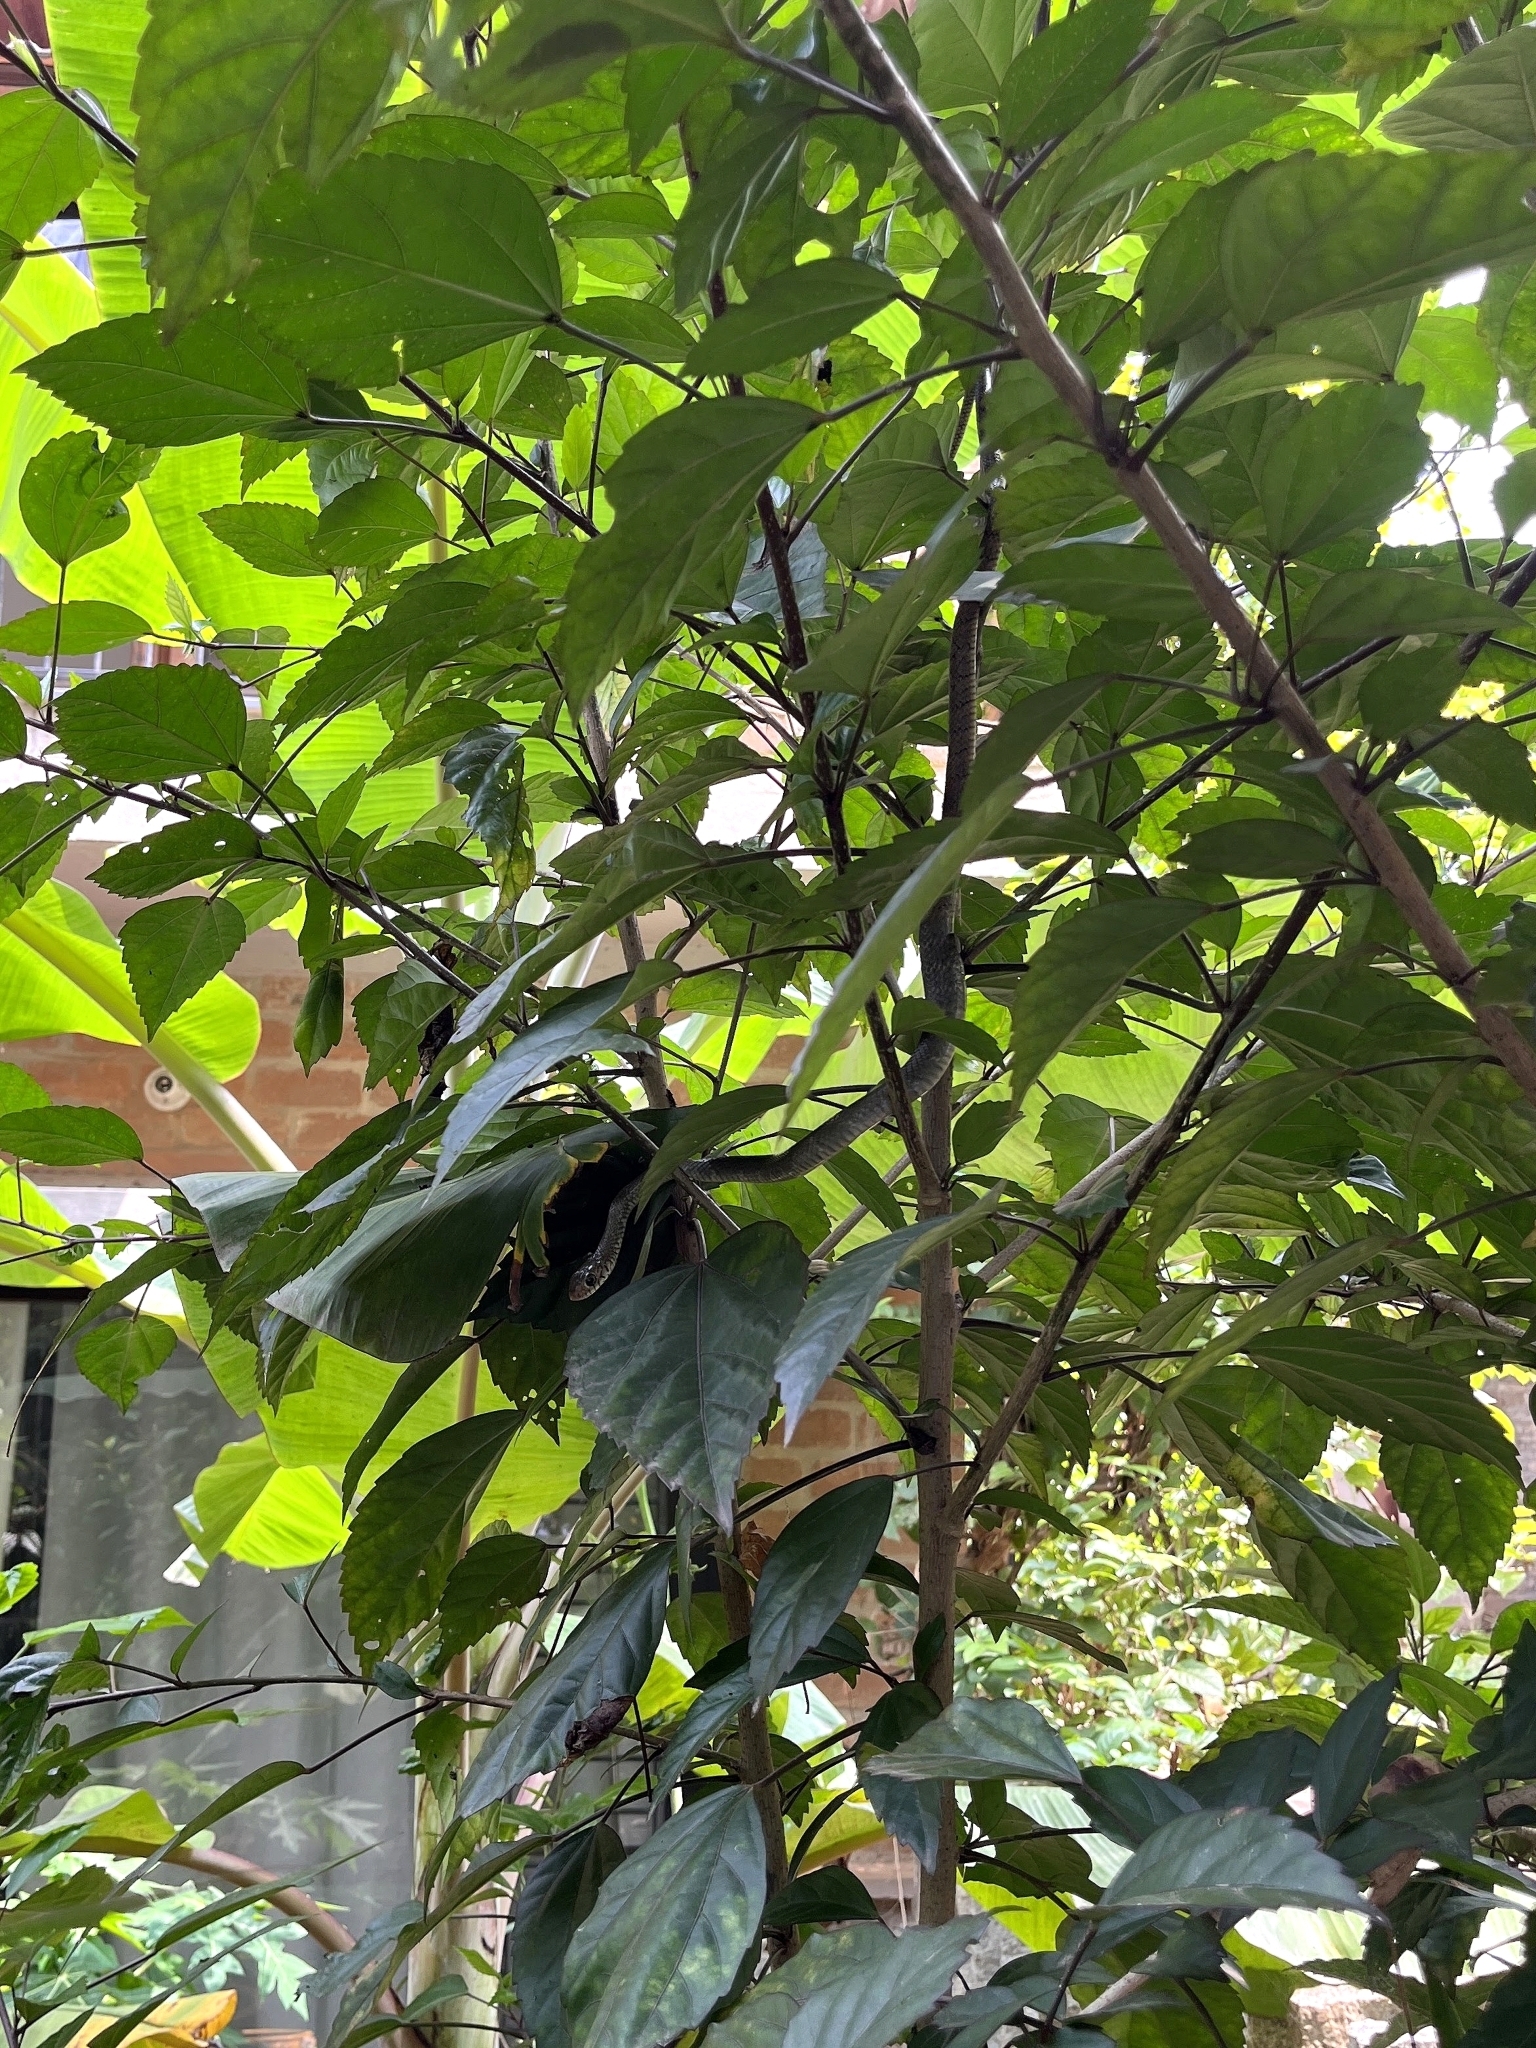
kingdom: Animalia
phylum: Chordata
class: Squamata
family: Colubridae
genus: Ptyas
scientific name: Ptyas mucosa
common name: Oriental ratsnake
